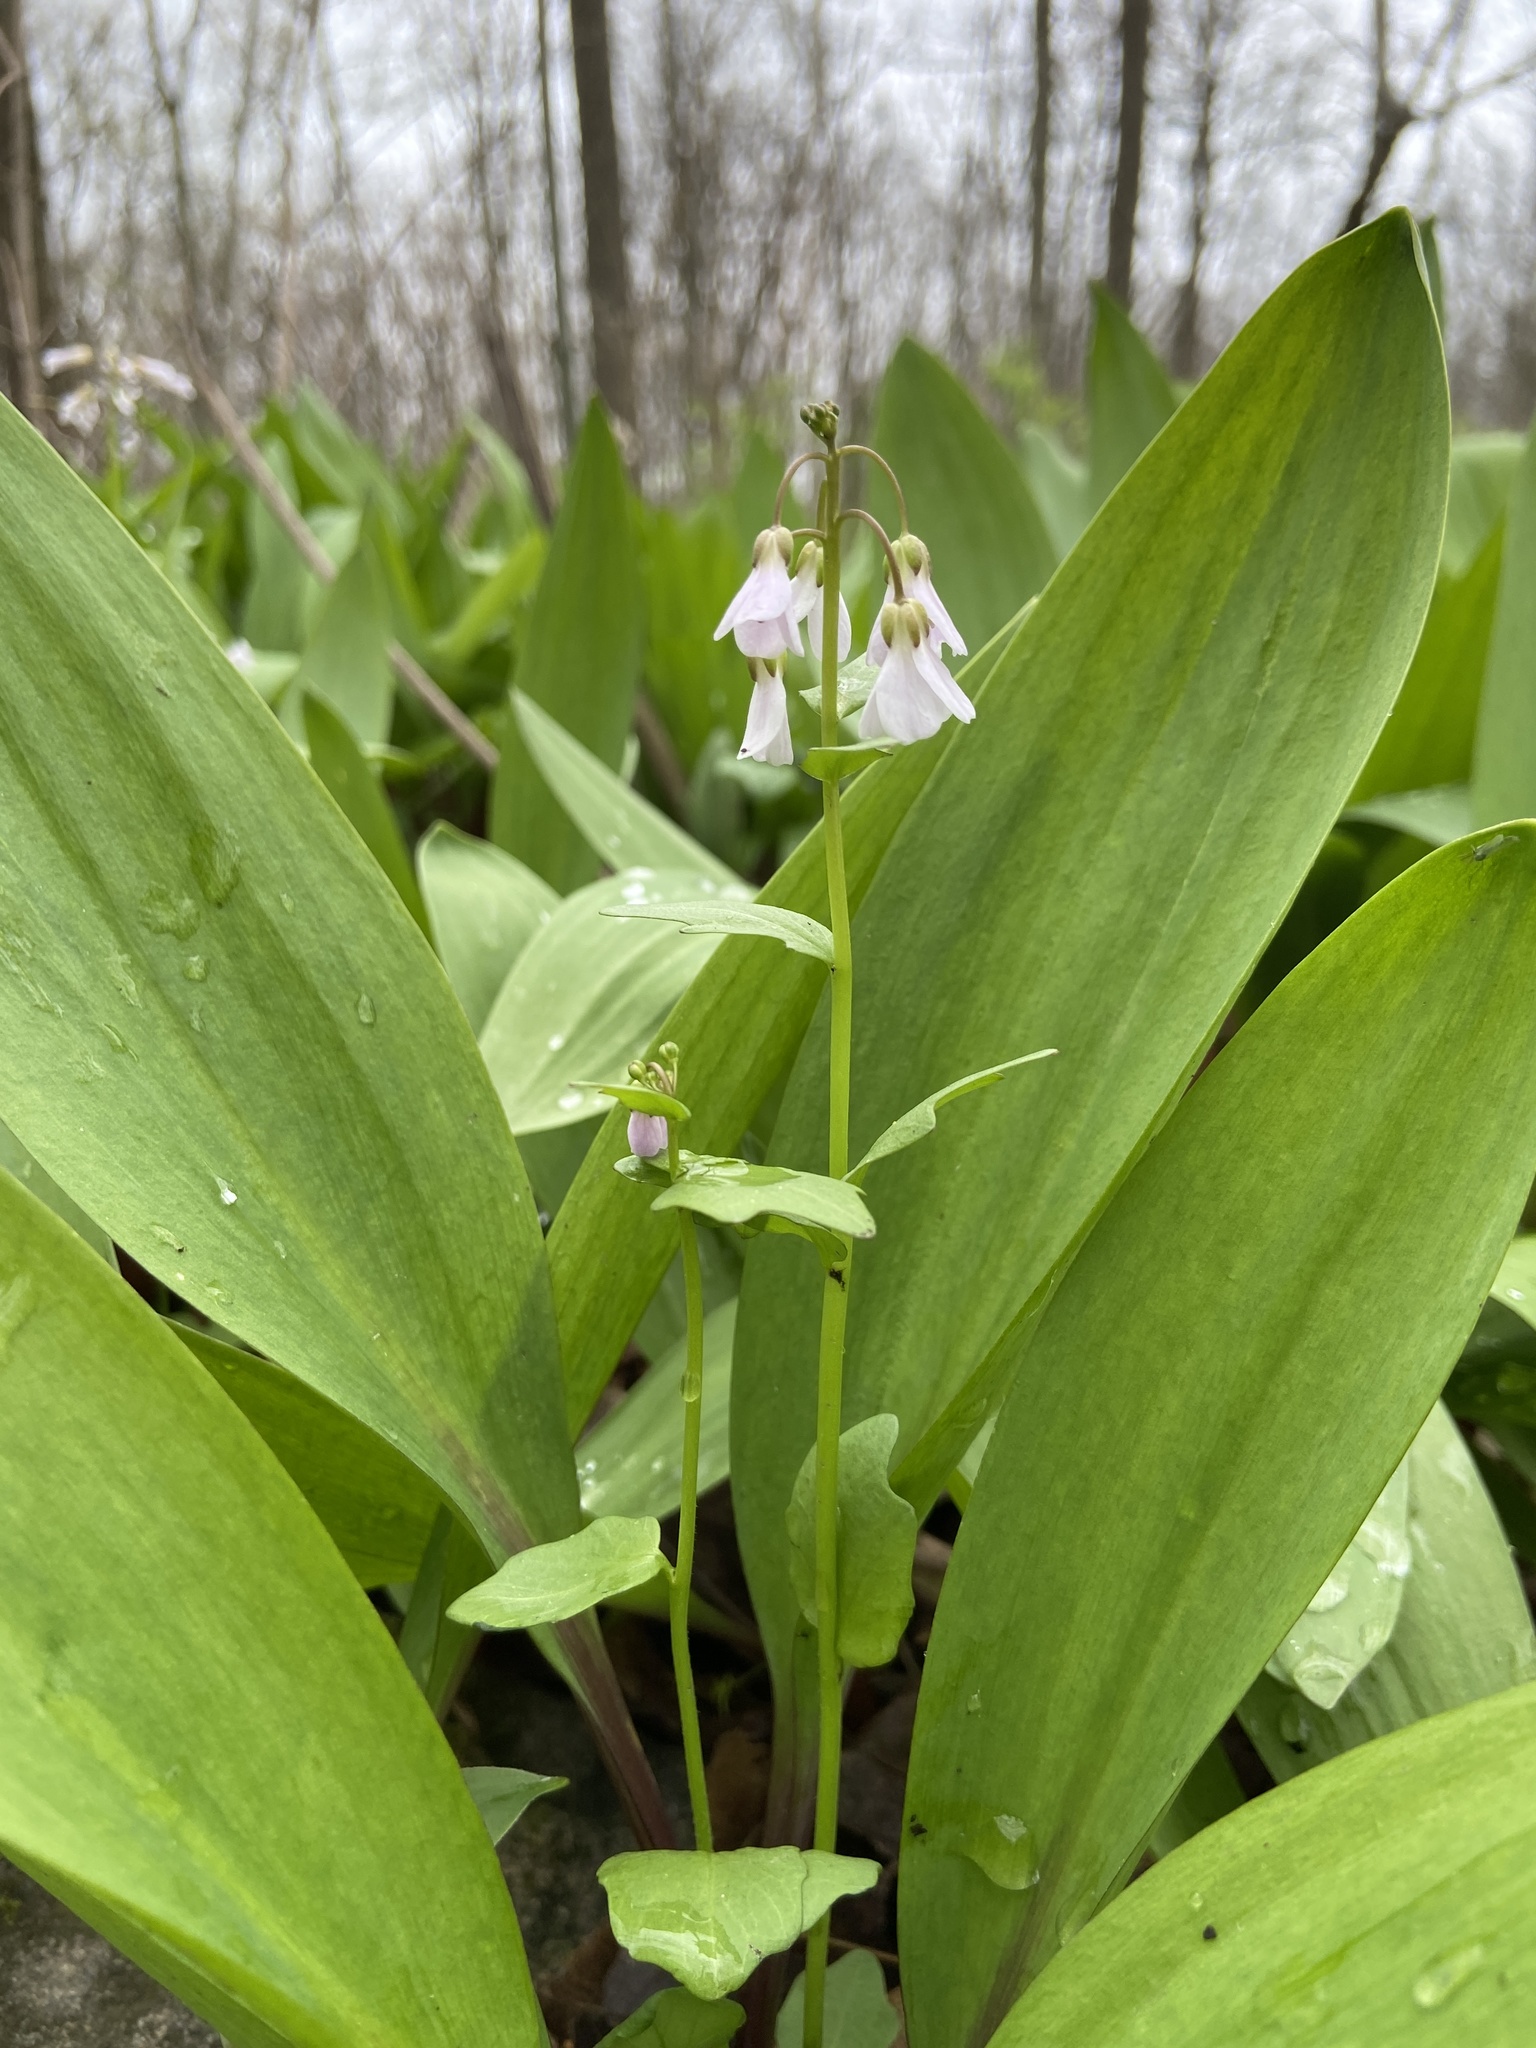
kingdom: Plantae
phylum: Tracheophyta
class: Magnoliopsida
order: Brassicales
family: Brassicaceae
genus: Cardamine
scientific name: Cardamine douglassii
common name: Purple cress
